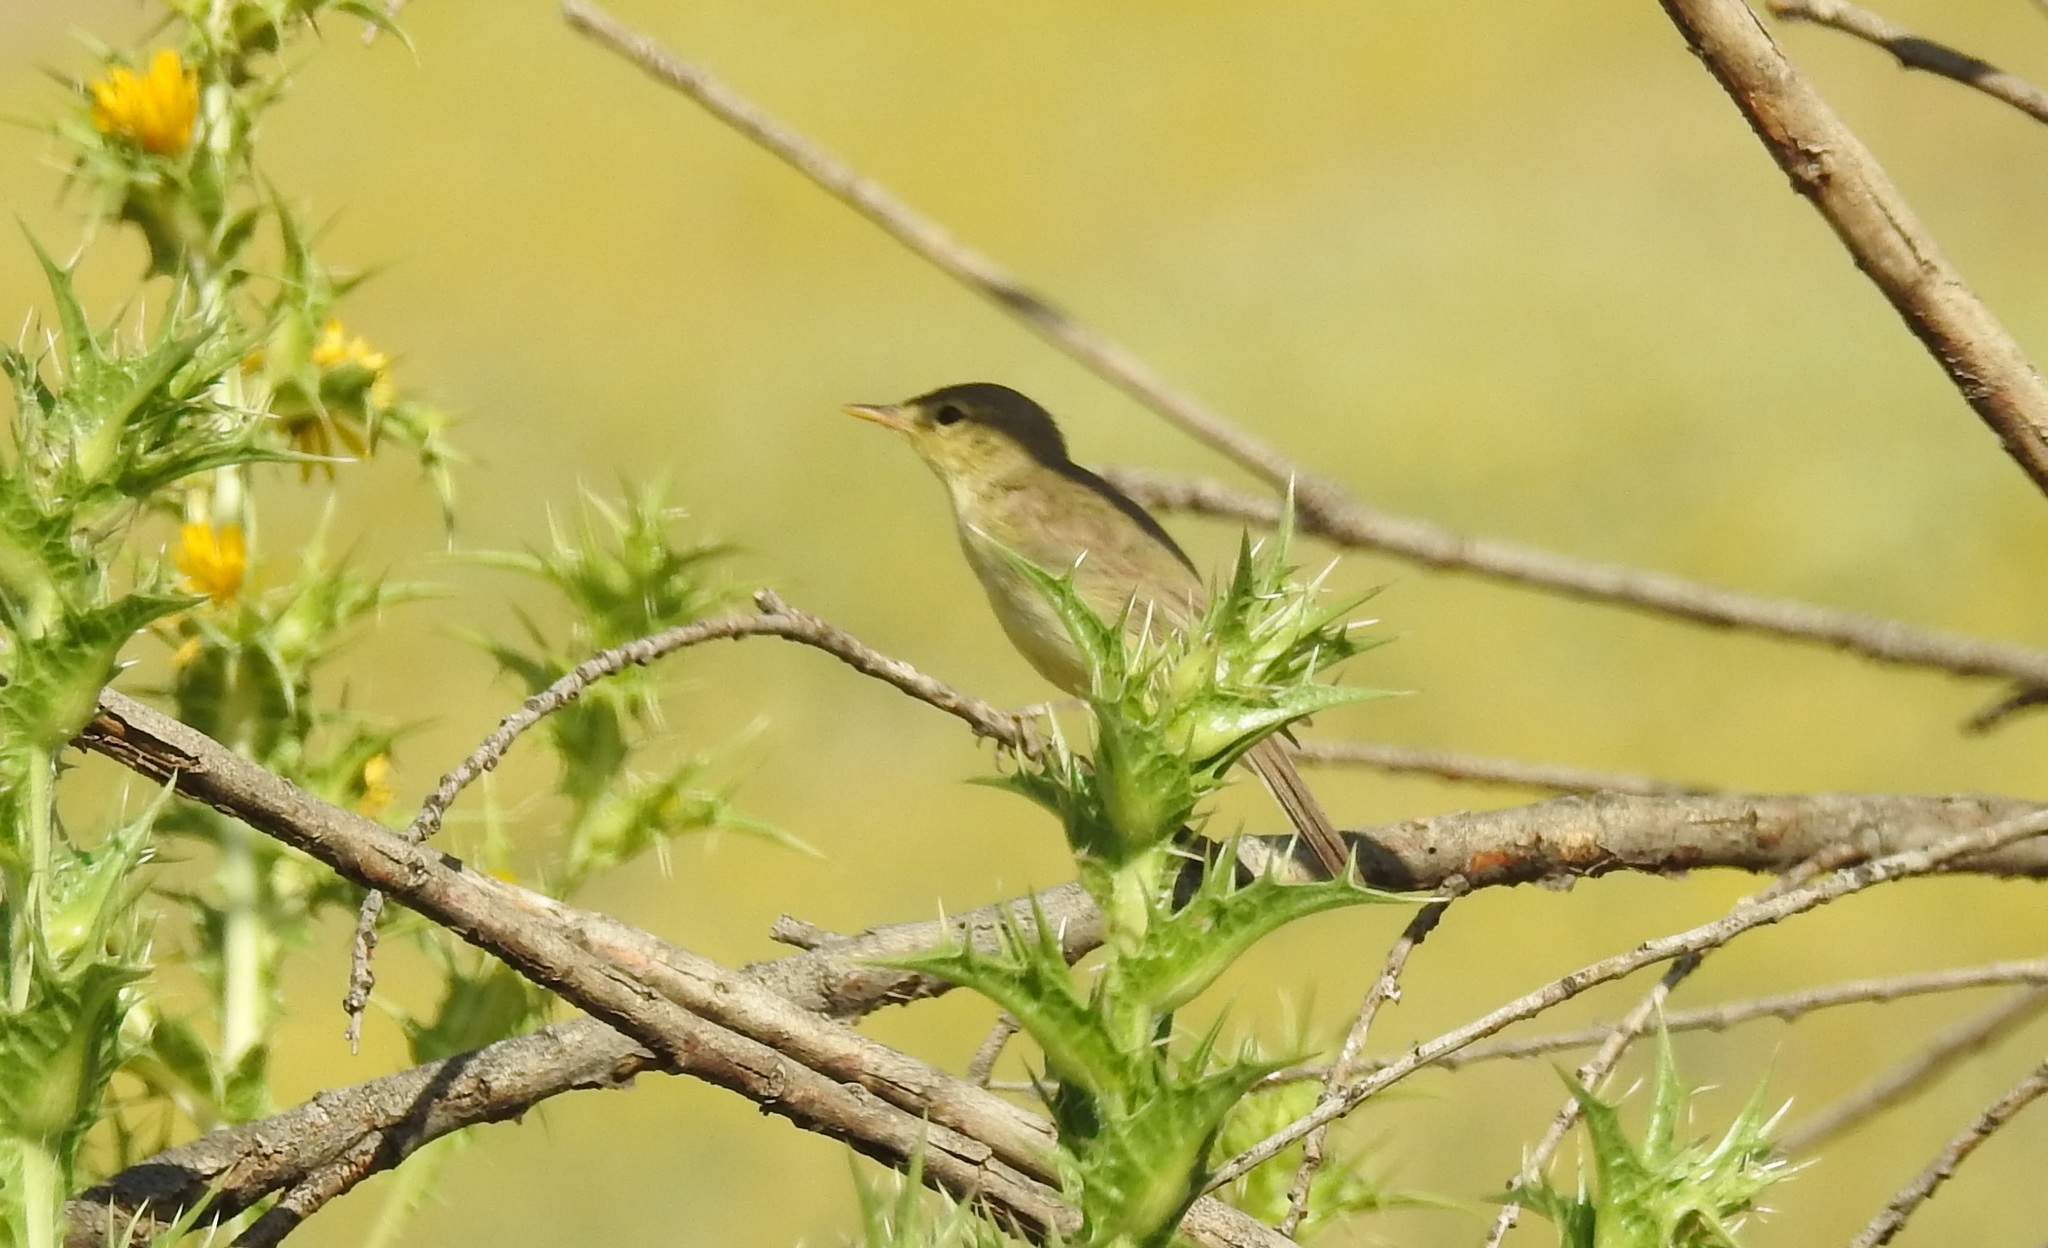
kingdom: Animalia
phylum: Chordata
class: Aves
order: Passeriformes
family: Acrocephalidae
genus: Hippolais
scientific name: Hippolais polyglotta
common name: Melodious warbler
